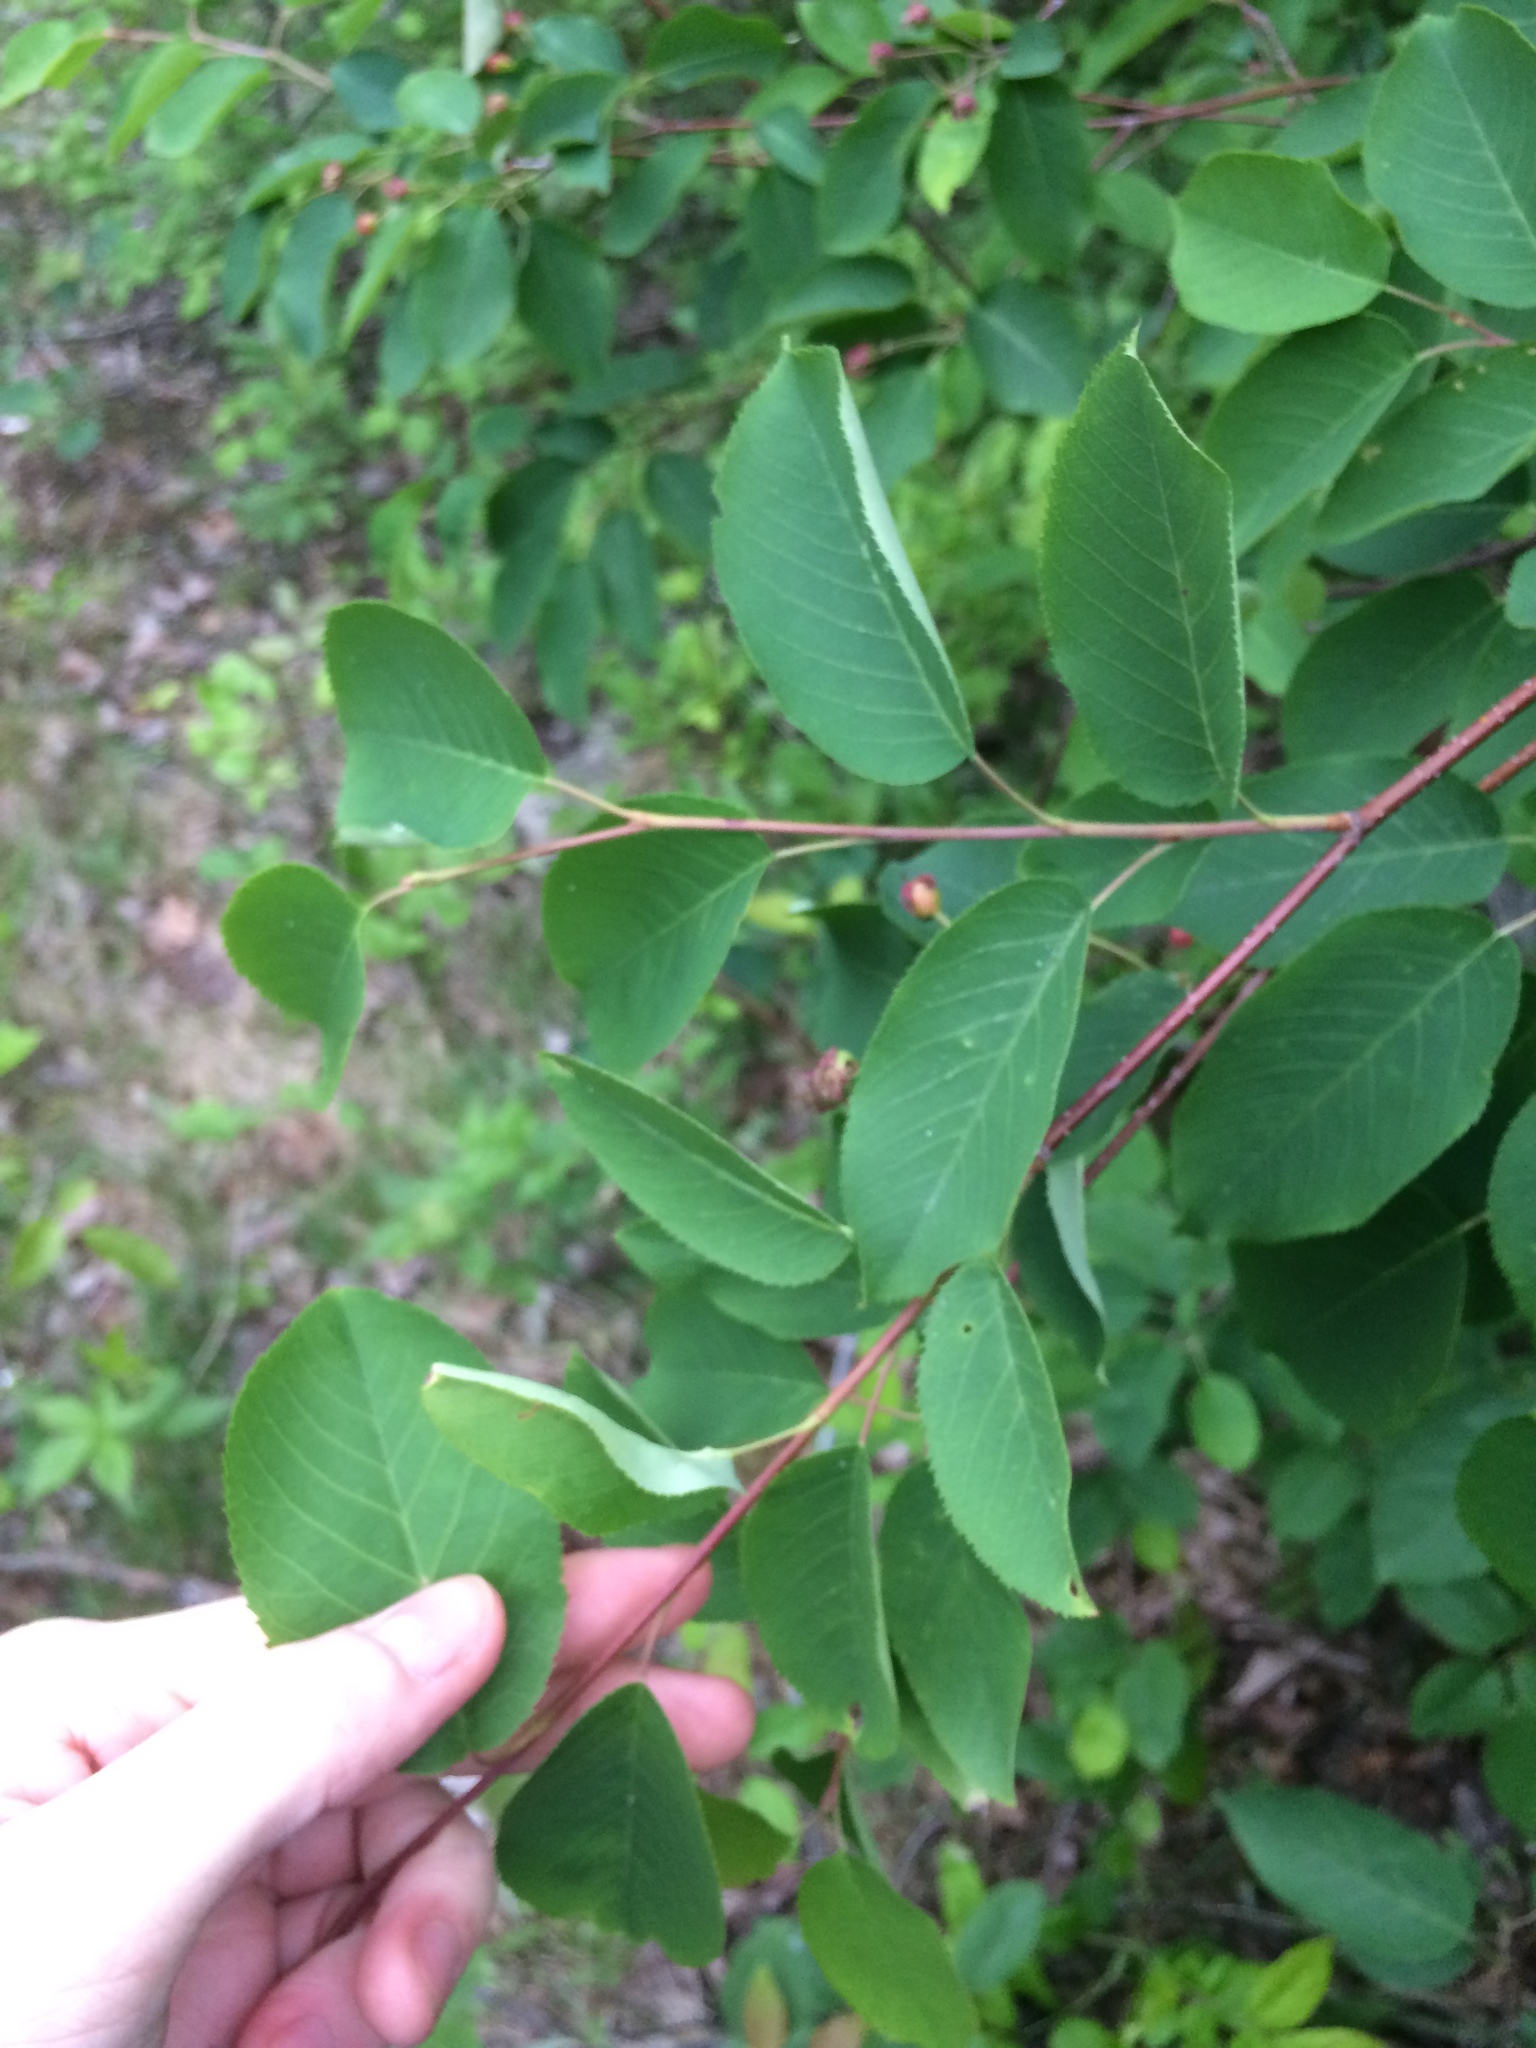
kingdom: Plantae
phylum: Tracheophyta
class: Magnoliopsida
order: Rosales
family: Rosaceae
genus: Amelanchier
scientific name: Amelanchier arborea
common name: Downy serviceberry
